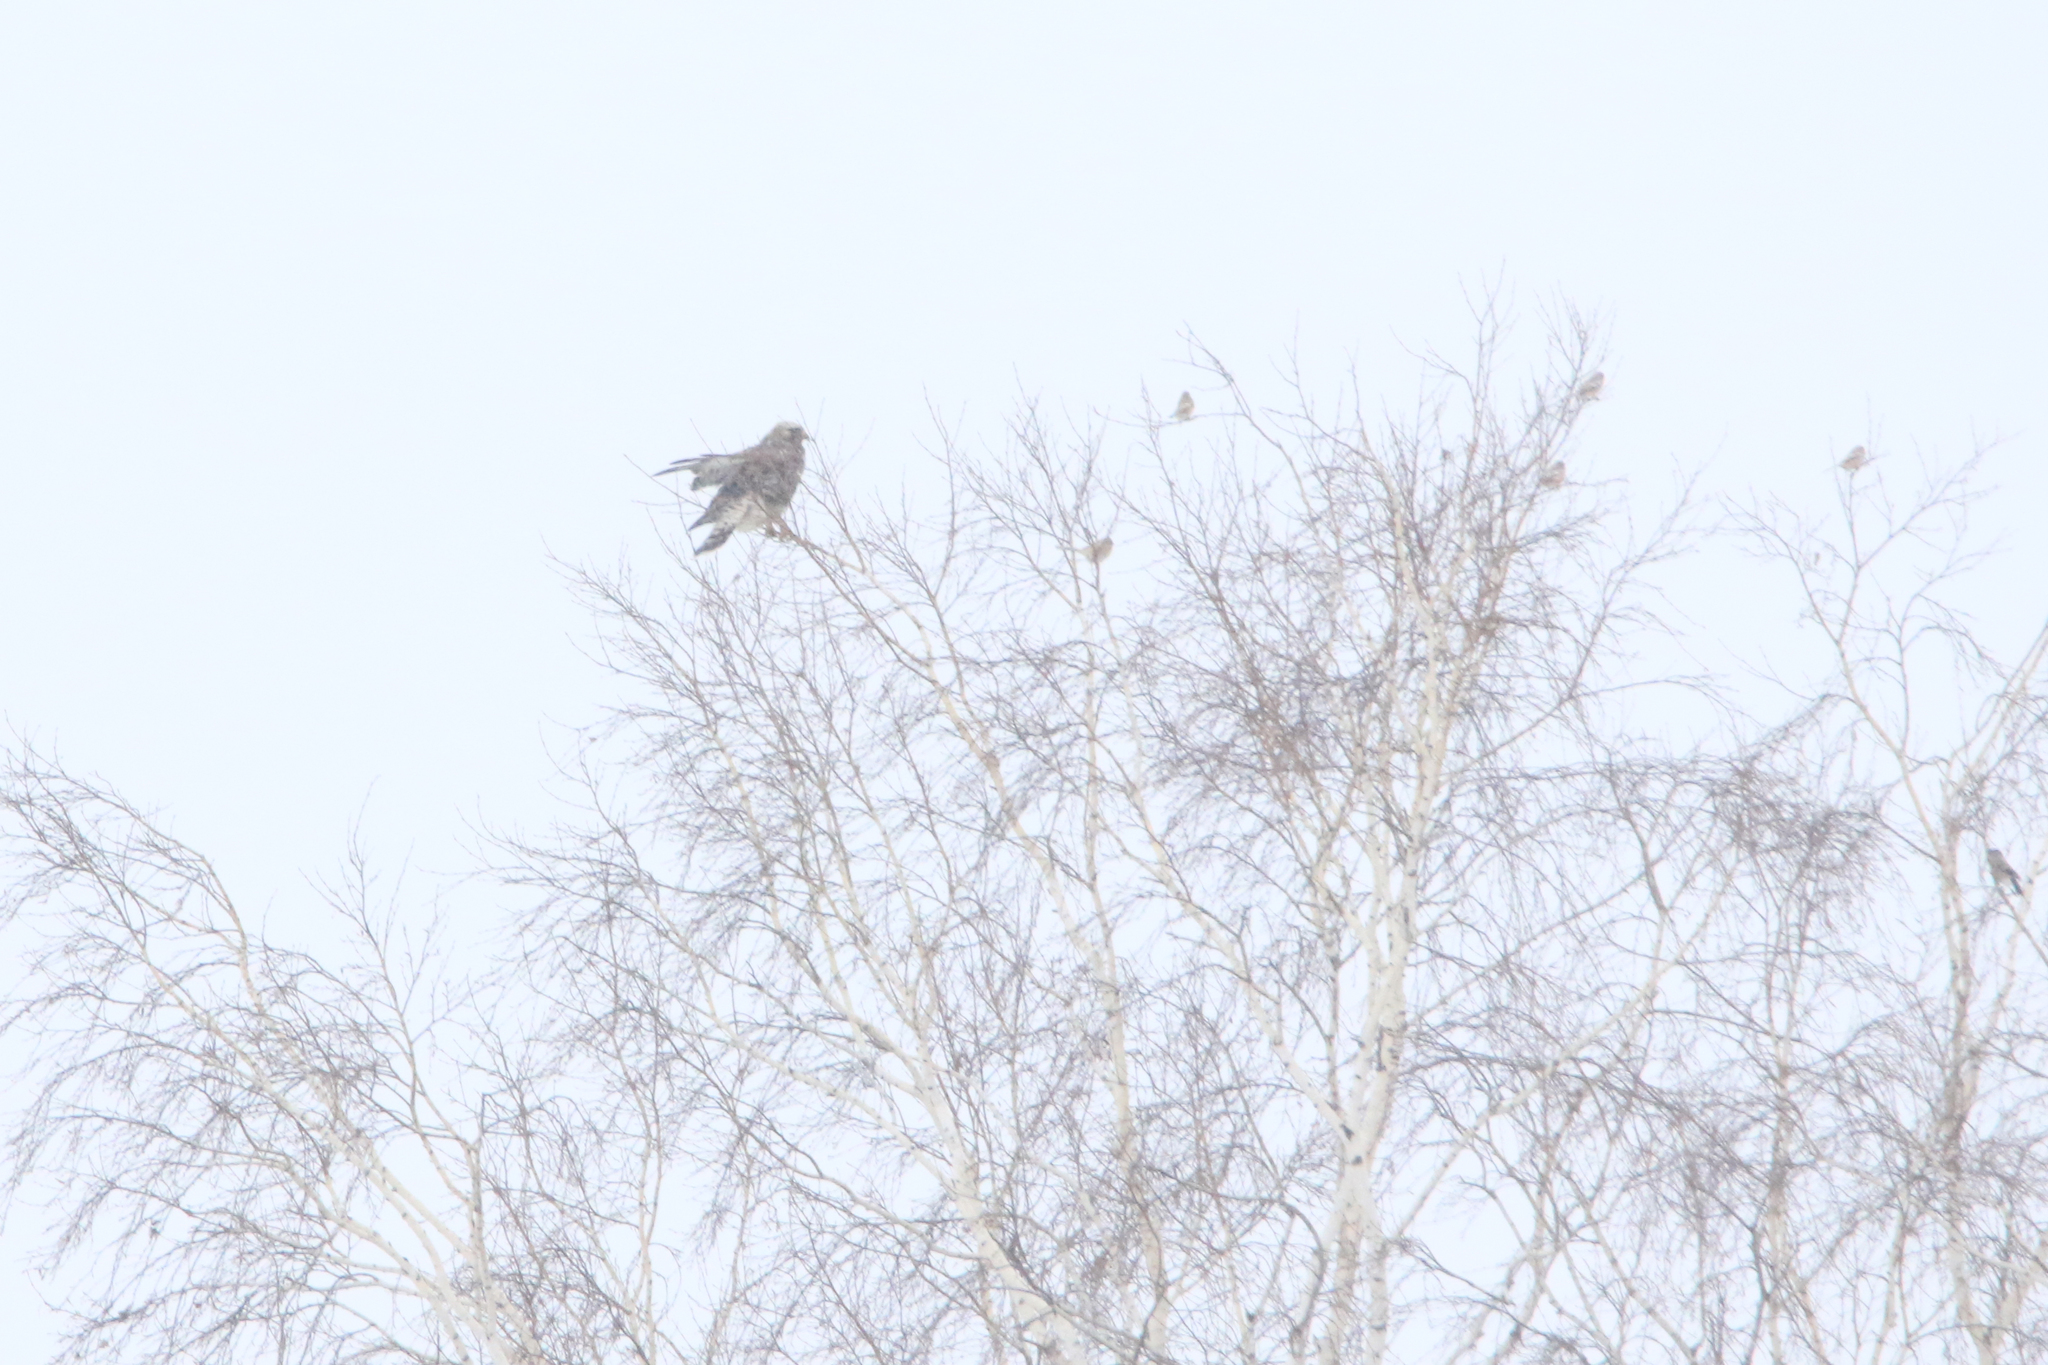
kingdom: Animalia
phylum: Chordata
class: Aves
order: Accipitriformes
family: Accipitridae
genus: Buteo
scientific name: Buteo lagopus
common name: Rough-legged buzzard
